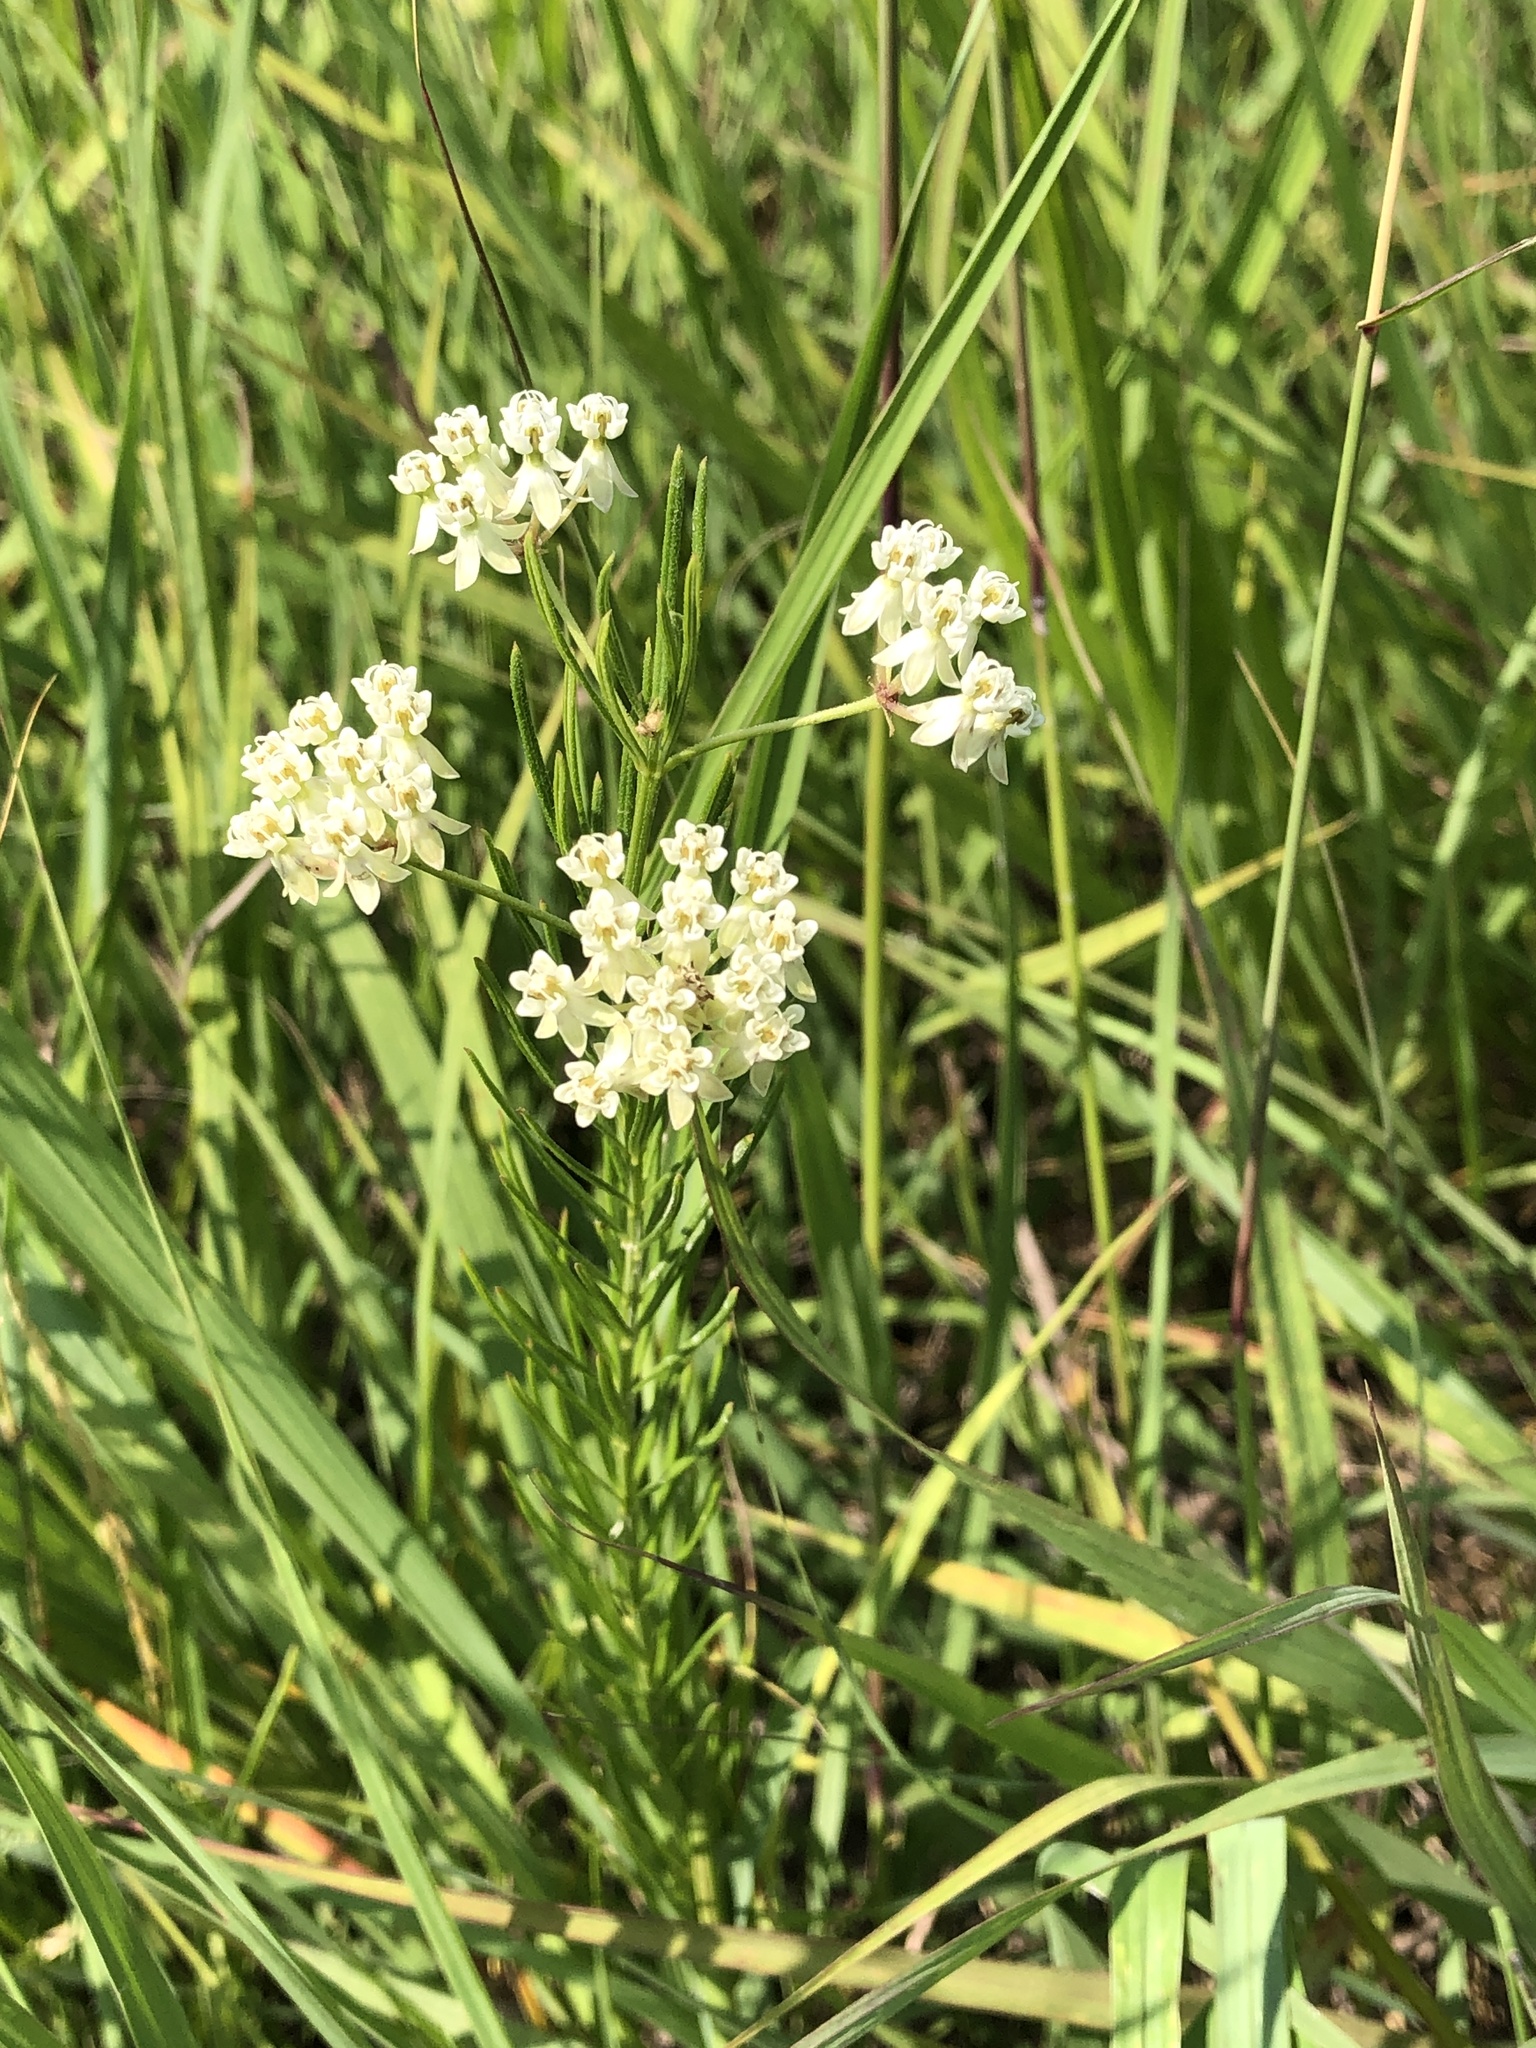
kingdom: Plantae
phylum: Tracheophyta
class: Magnoliopsida
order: Gentianales
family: Apocynaceae
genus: Asclepias
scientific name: Asclepias verticillata
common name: Eastern whorled milkweed
